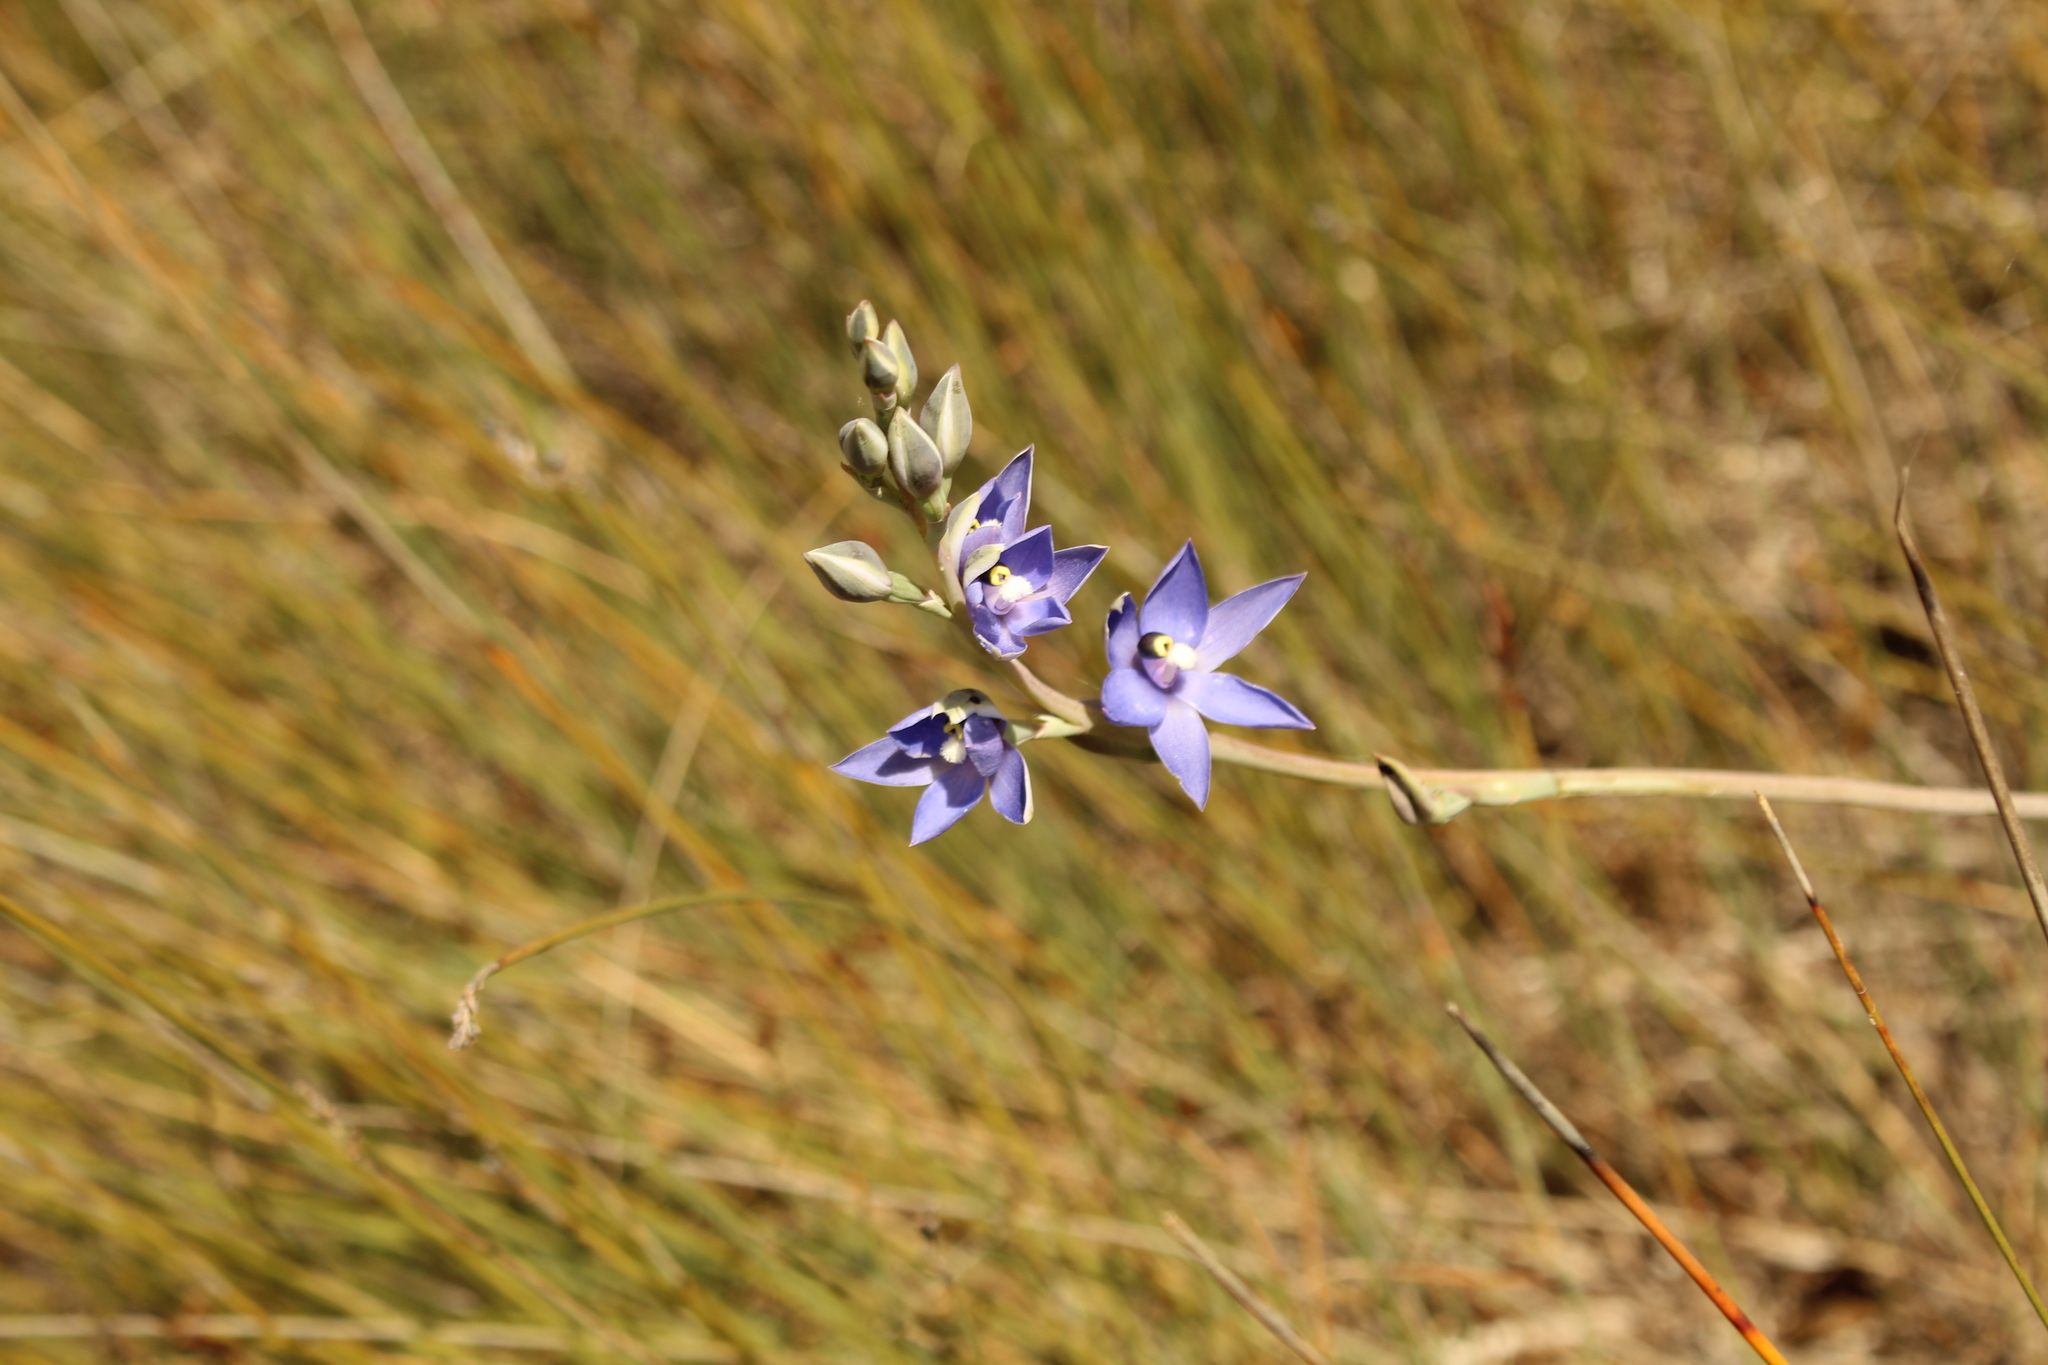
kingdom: Plantae
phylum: Tracheophyta
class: Liliopsida
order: Asparagales
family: Orchidaceae
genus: Thelymitra
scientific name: Thelymitra macrophylla
